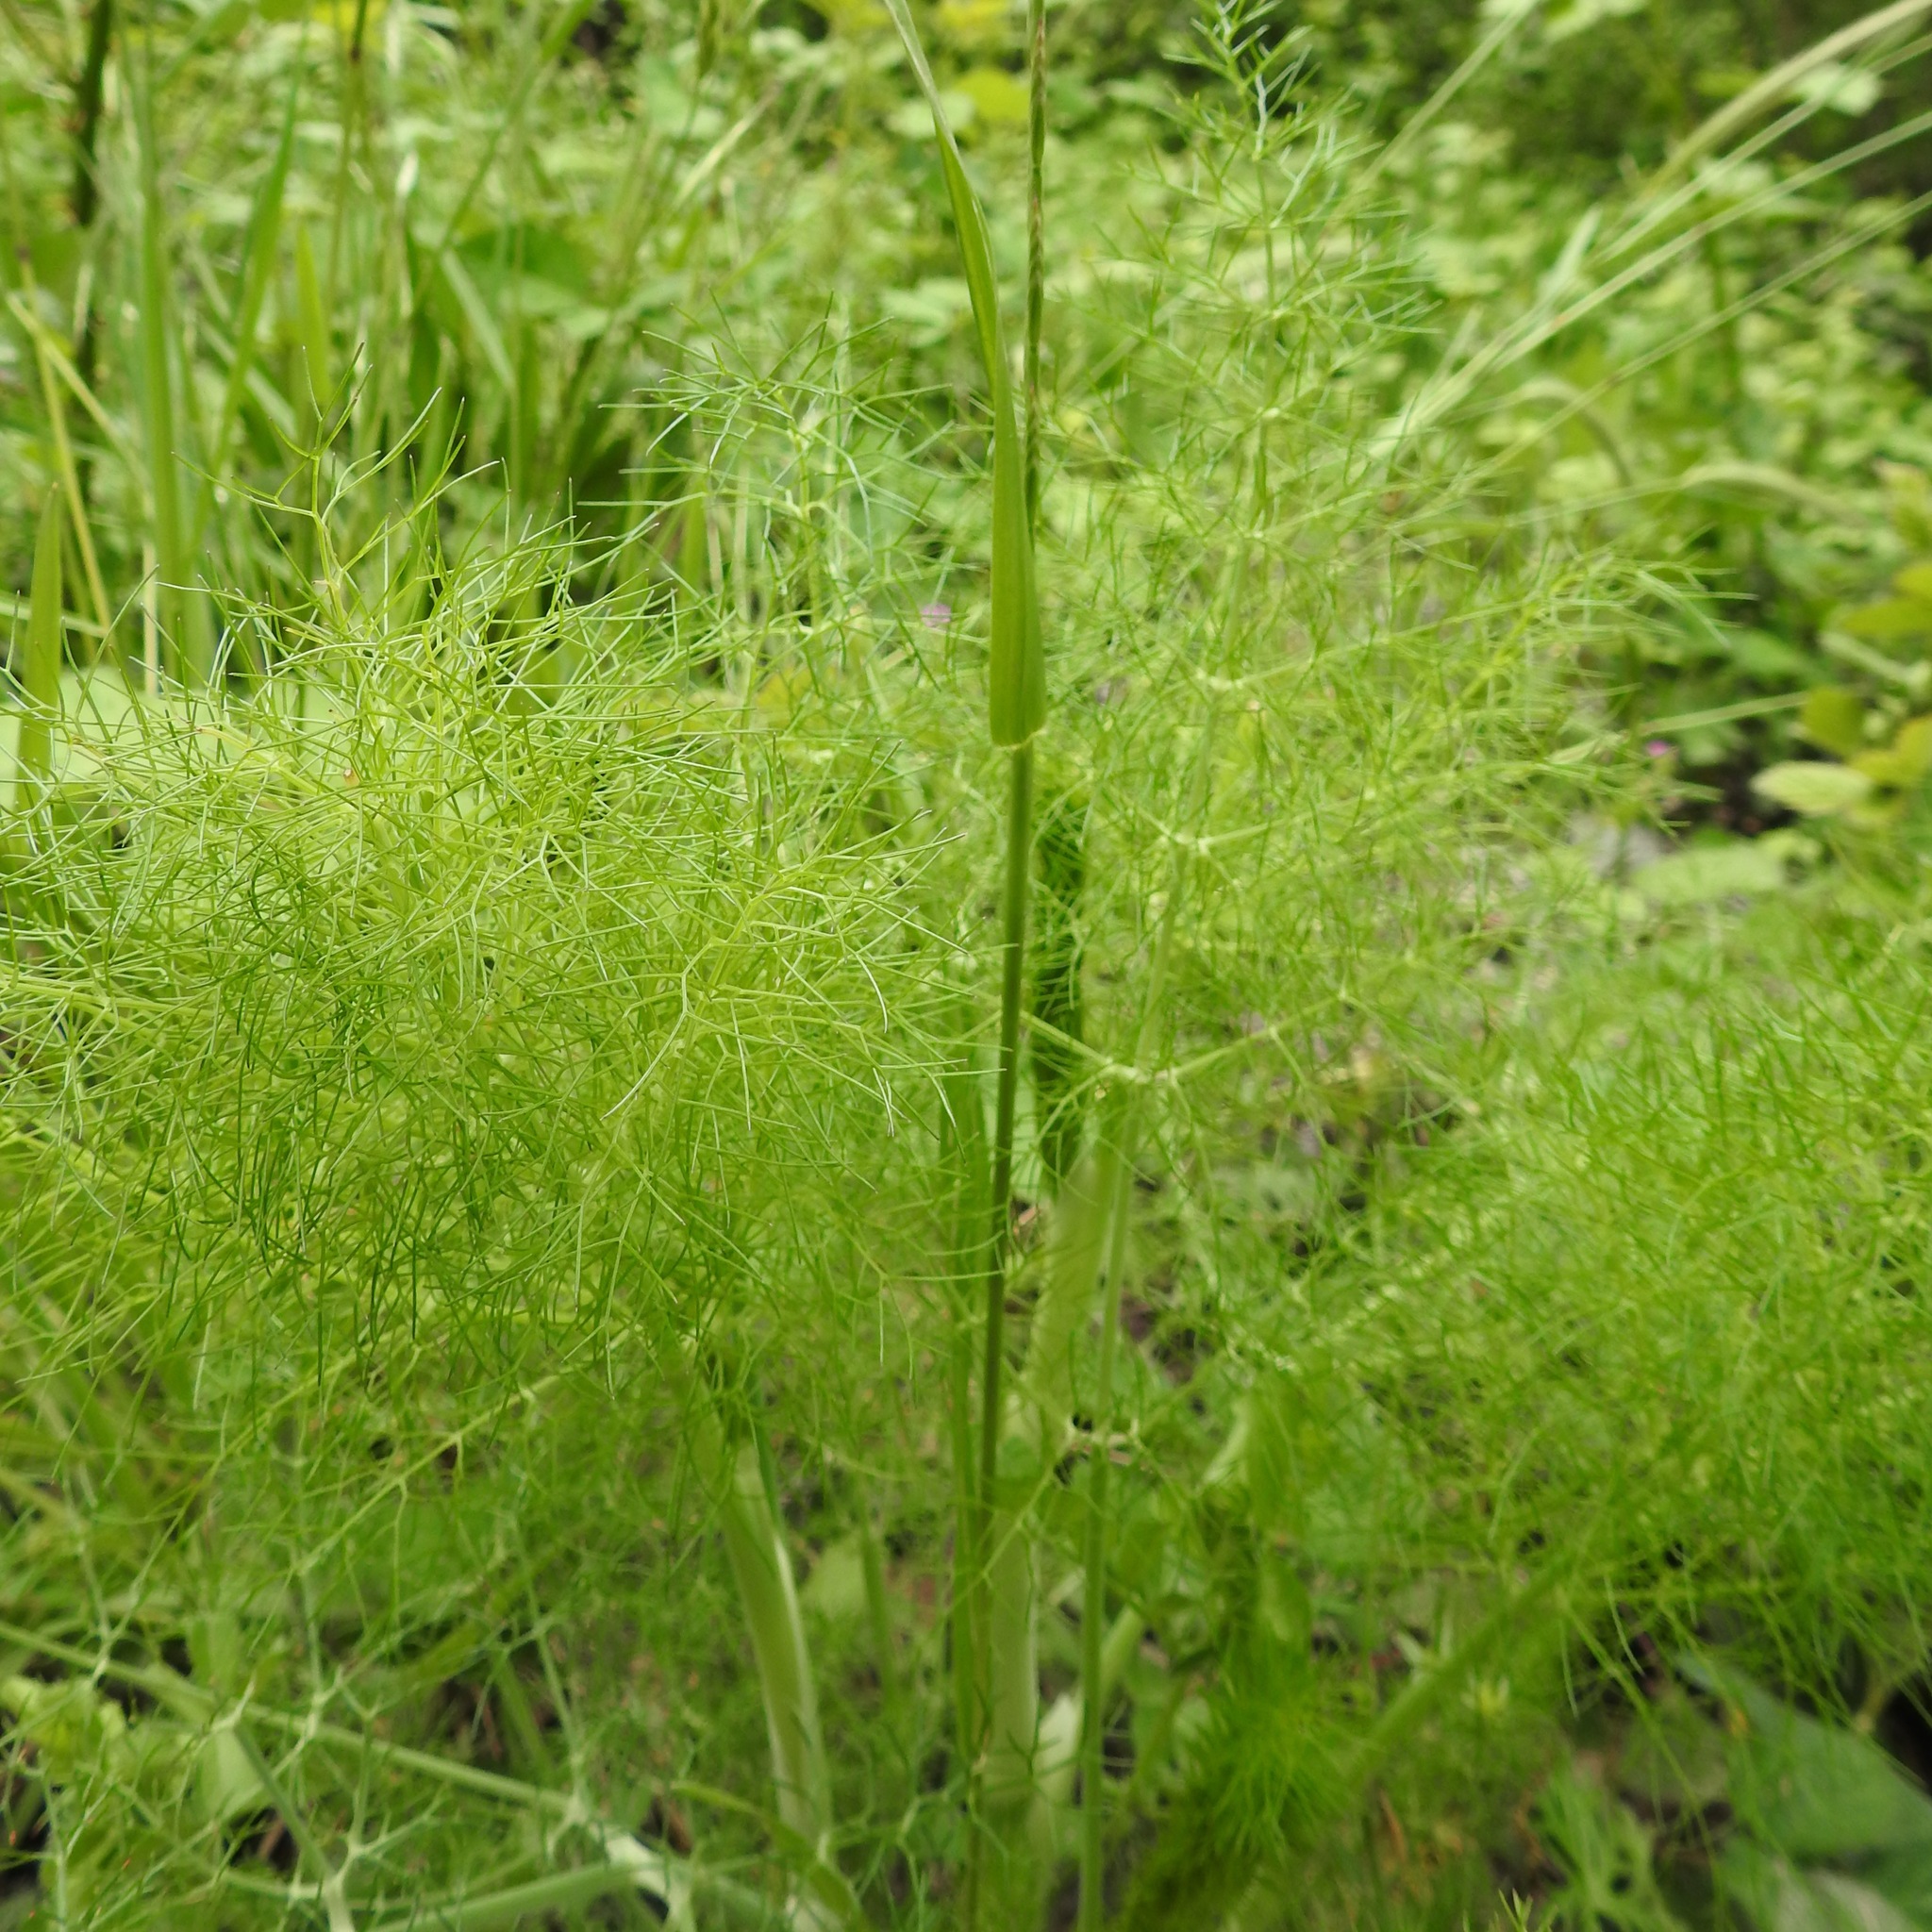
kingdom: Plantae
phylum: Tracheophyta
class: Magnoliopsida
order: Apiales
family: Apiaceae
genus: Foeniculum
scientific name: Foeniculum vulgare
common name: Fennel
